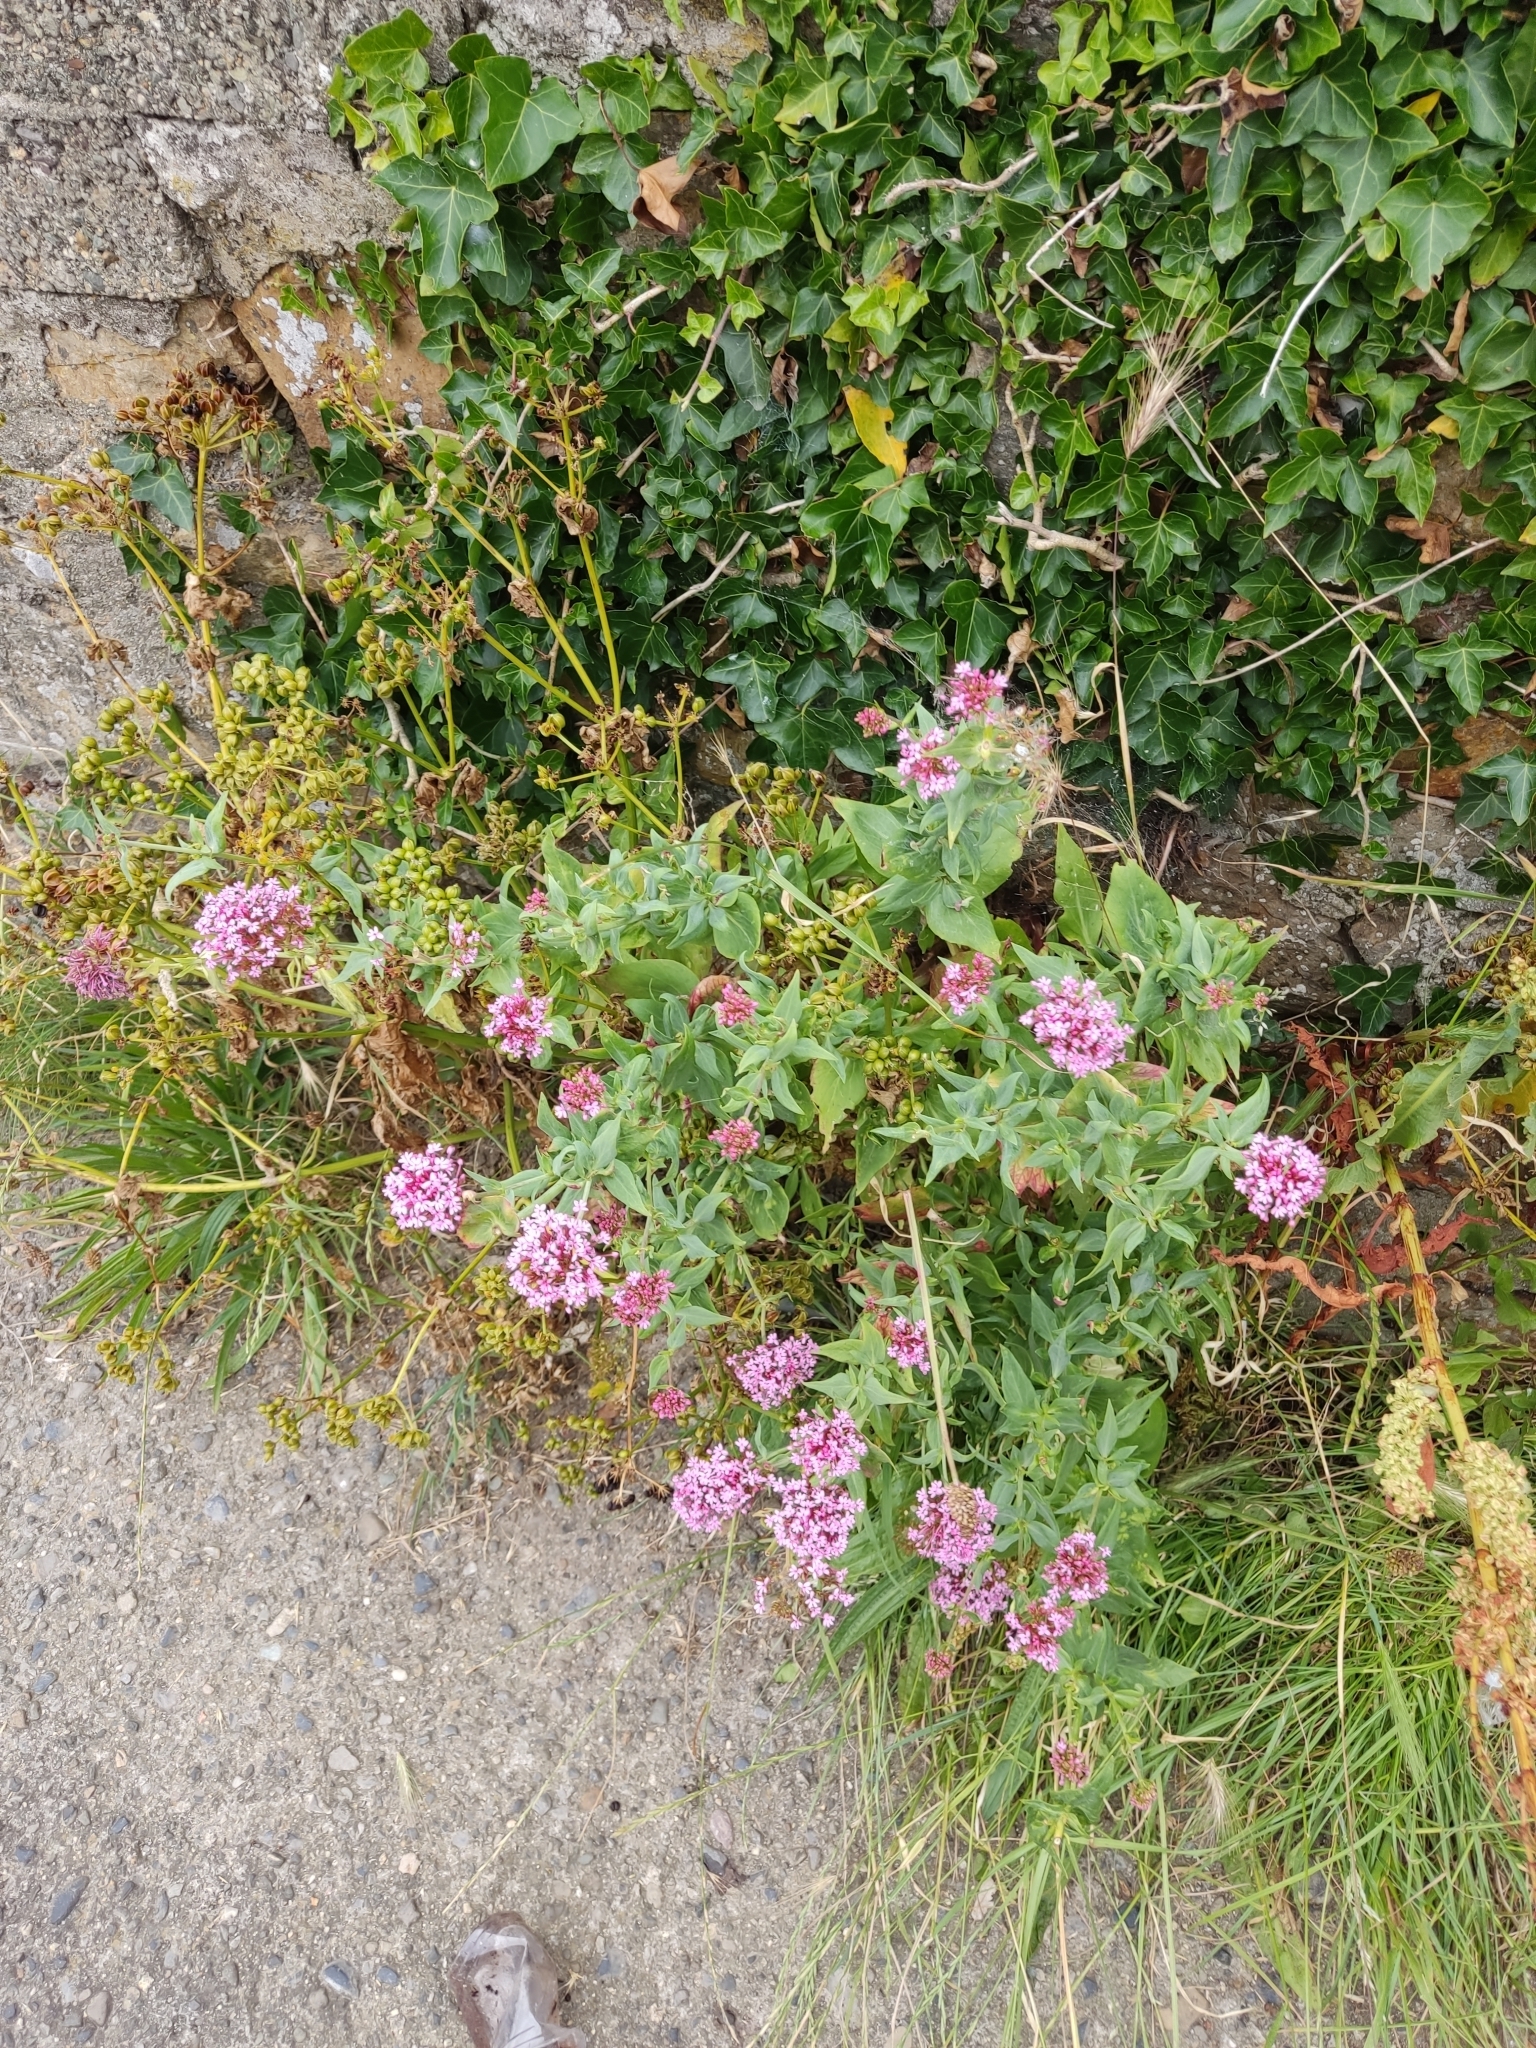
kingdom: Plantae
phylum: Tracheophyta
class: Magnoliopsida
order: Dipsacales
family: Caprifoliaceae
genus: Centranthus
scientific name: Centranthus ruber
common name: Red valerian
